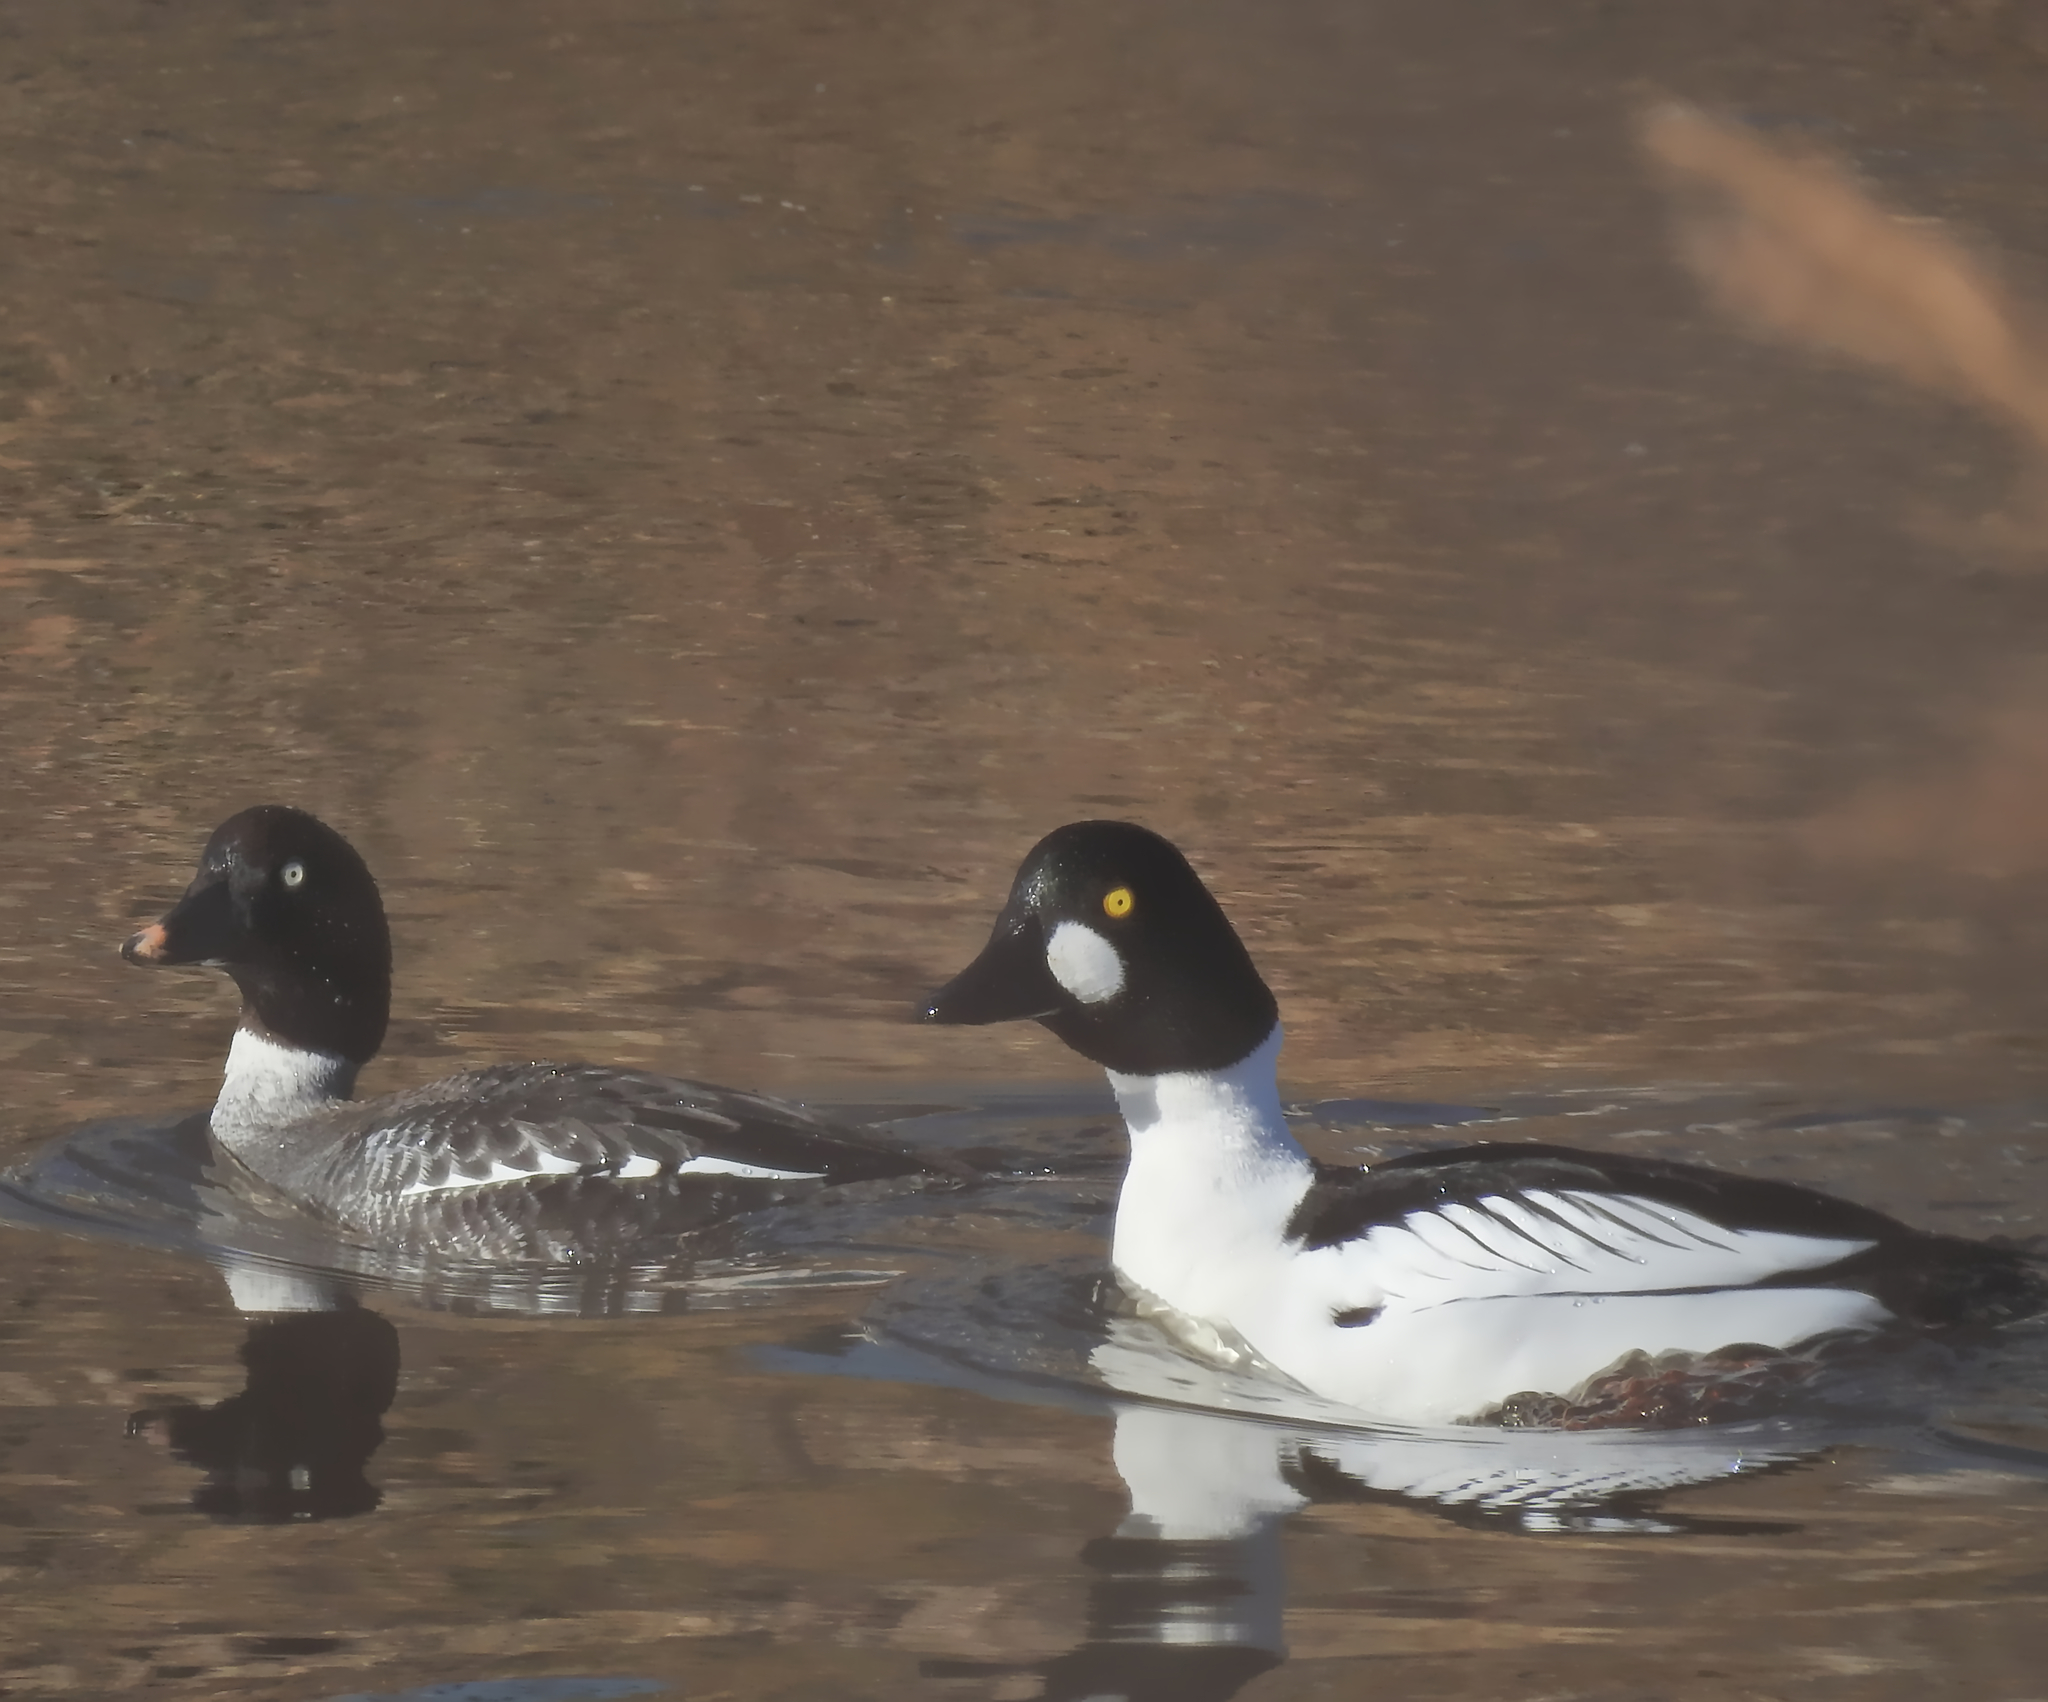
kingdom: Animalia
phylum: Chordata
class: Aves
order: Anseriformes
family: Anatidae
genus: Bucephala
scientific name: Bucephala clangula
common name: Common goldeneye
